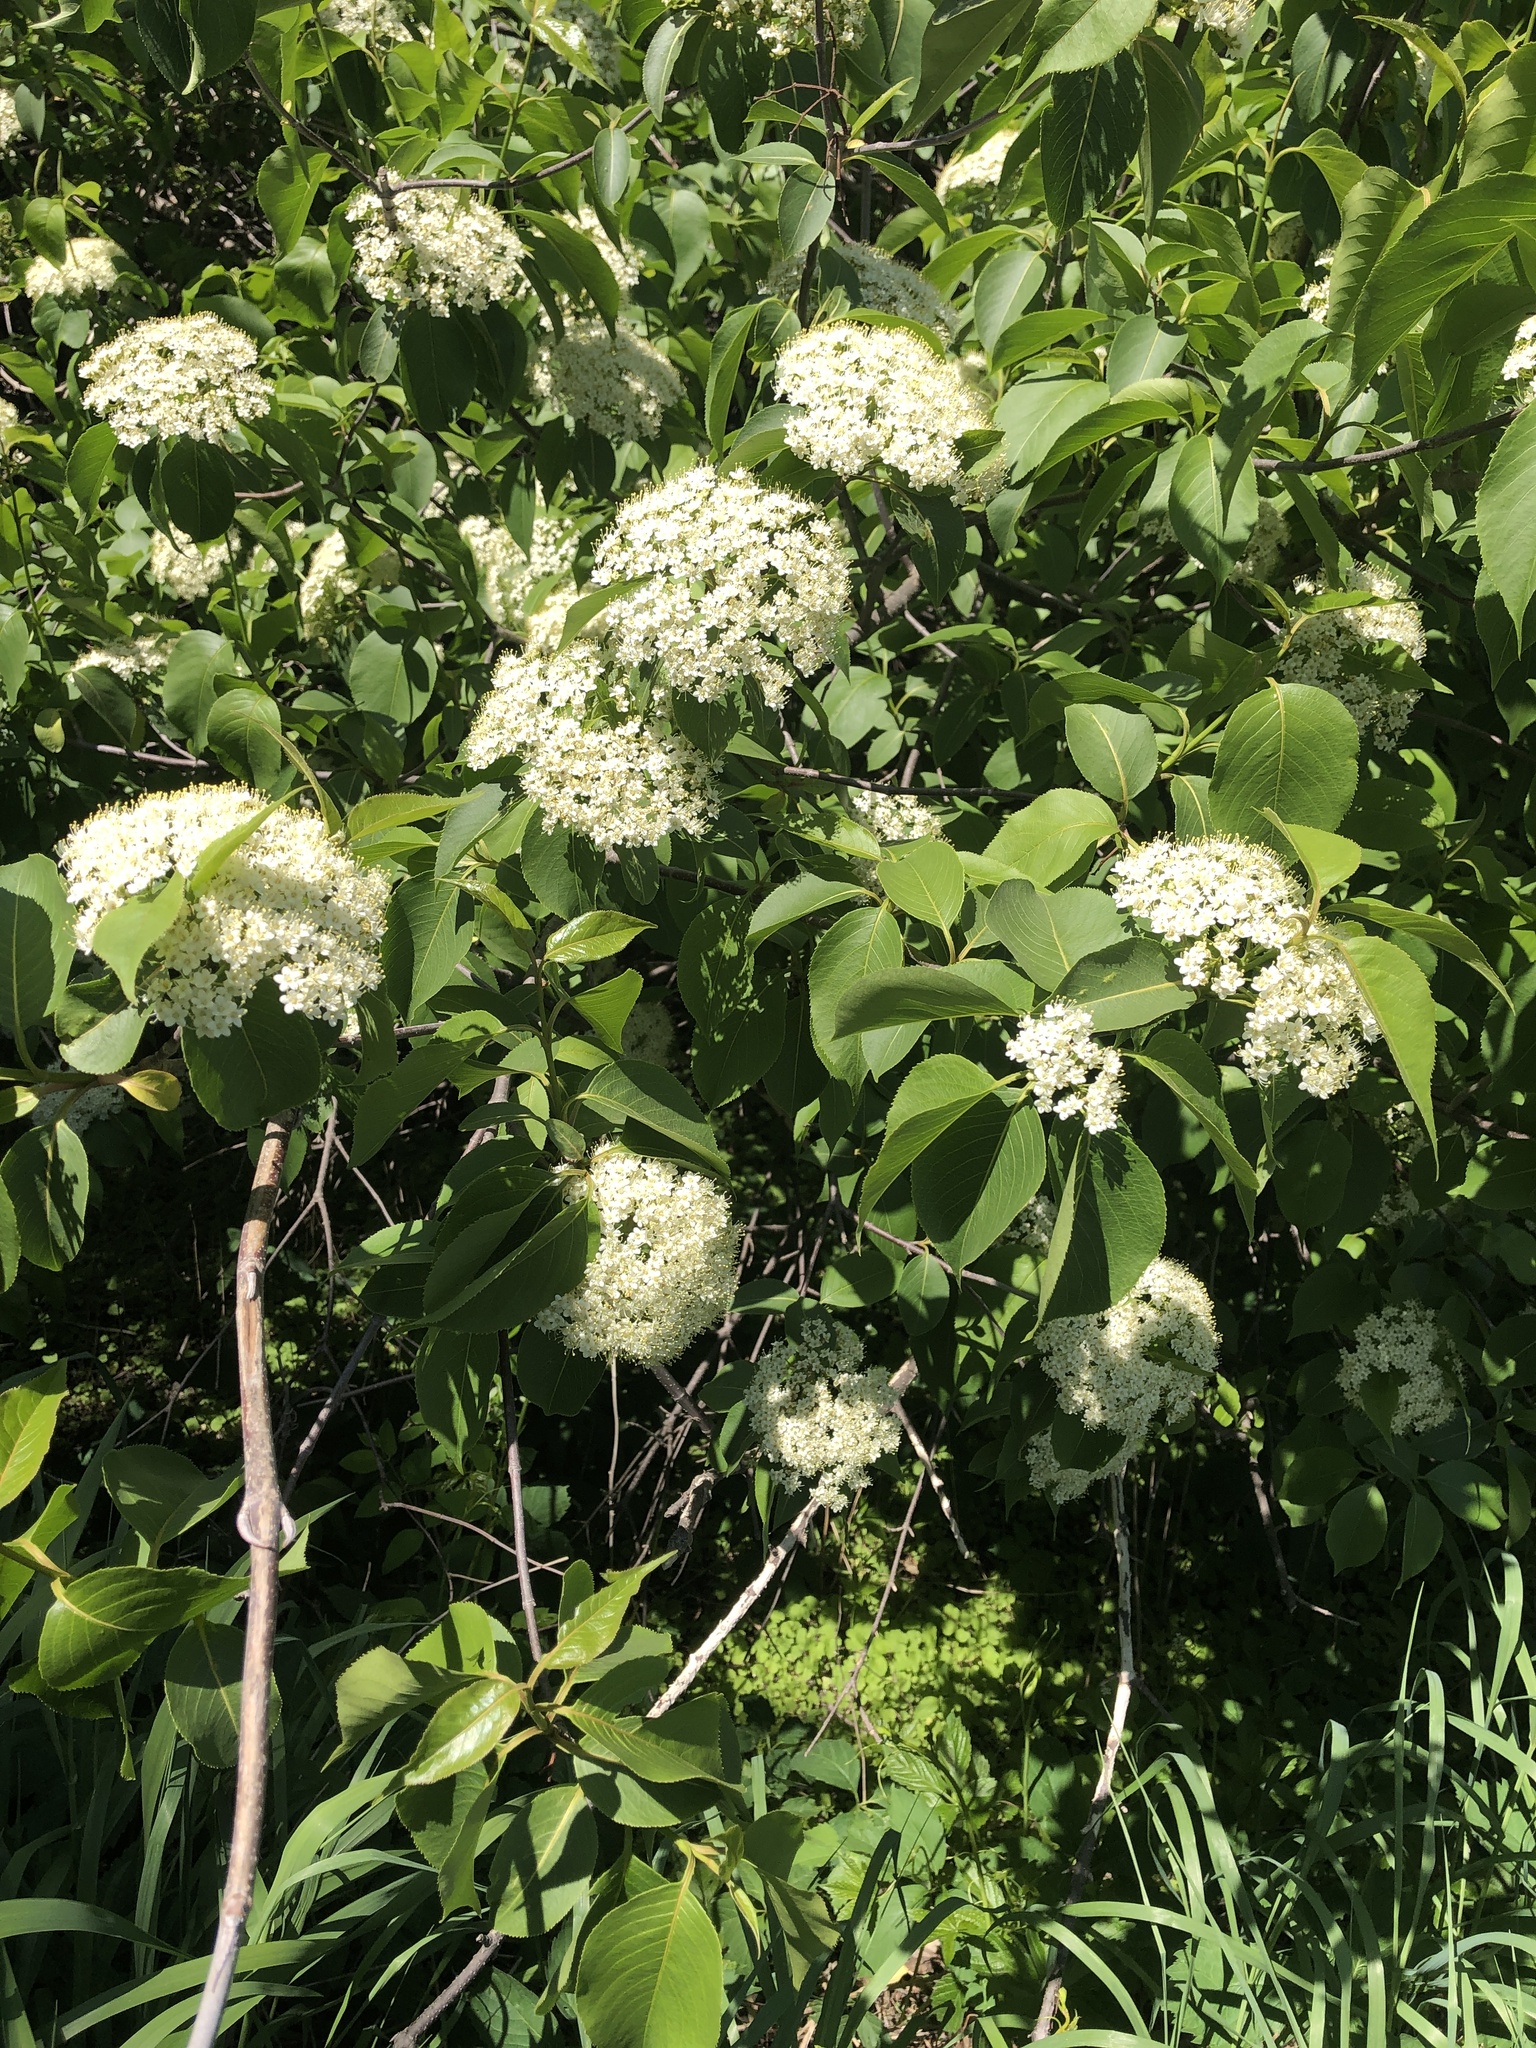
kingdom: Plantae
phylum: Tracheophyta
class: Magnoliopsida
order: Dipsacales
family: Viburnaceae
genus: Viburnum
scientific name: Viburnum lentago
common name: Black haw
